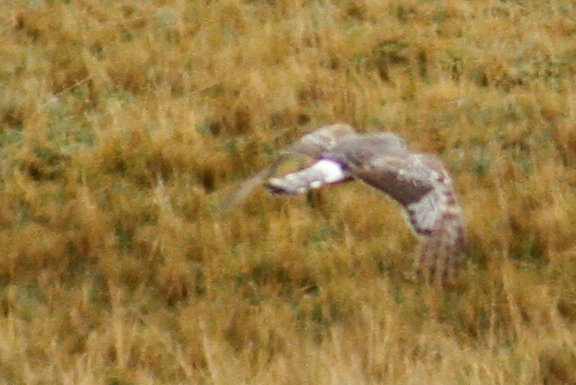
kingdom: Animalia
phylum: Chordata
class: Aves
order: Accipitriformes
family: Accipitridae
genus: Circus
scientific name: Circus cinereus
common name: Cinereous harrier
